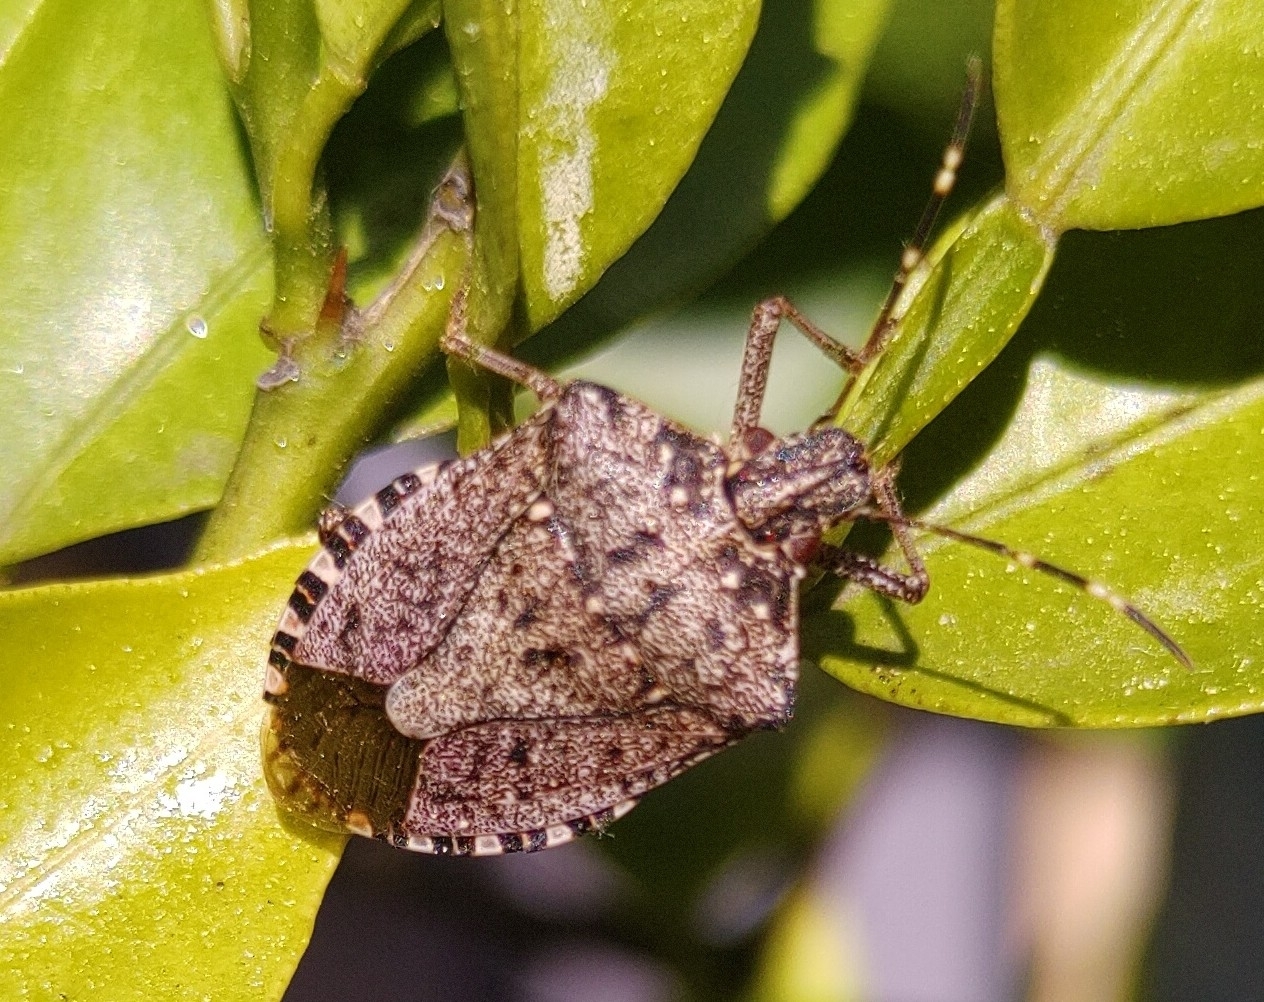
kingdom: Animalia
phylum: Arthropoda
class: Insecta
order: Hemiptera
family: Pentatomidae
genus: Halyomorpha
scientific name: Halyomorpha halys
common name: Brown marmorated stink bug
